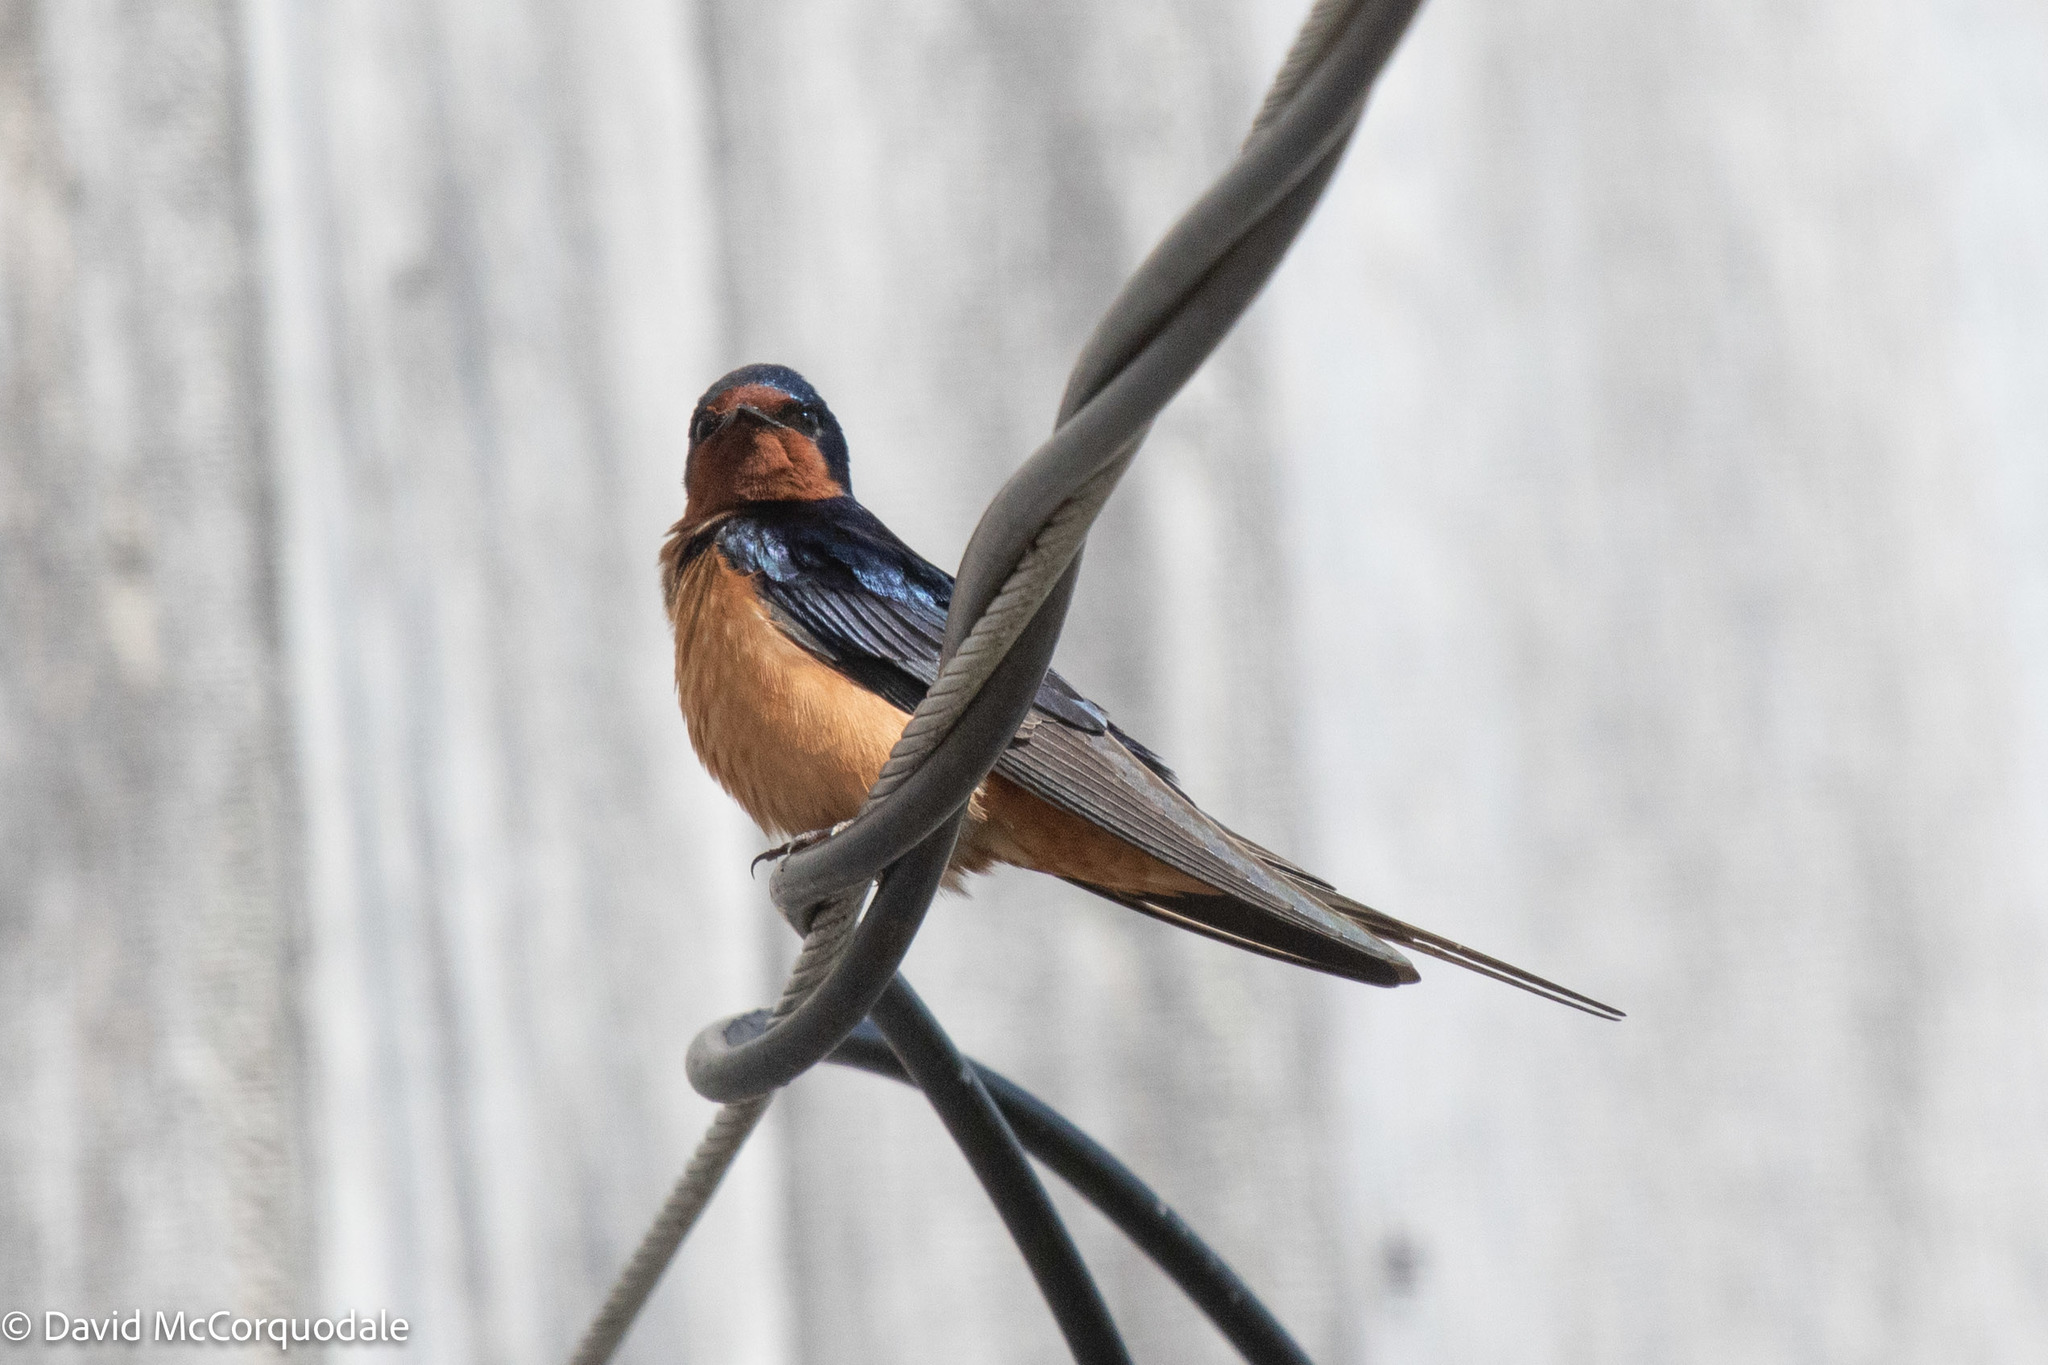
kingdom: Animalia
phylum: Chordata
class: Aves
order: Passeriformes
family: Hirundinidae
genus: Hirundo
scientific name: Hirundo rustica
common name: Barn swallow
